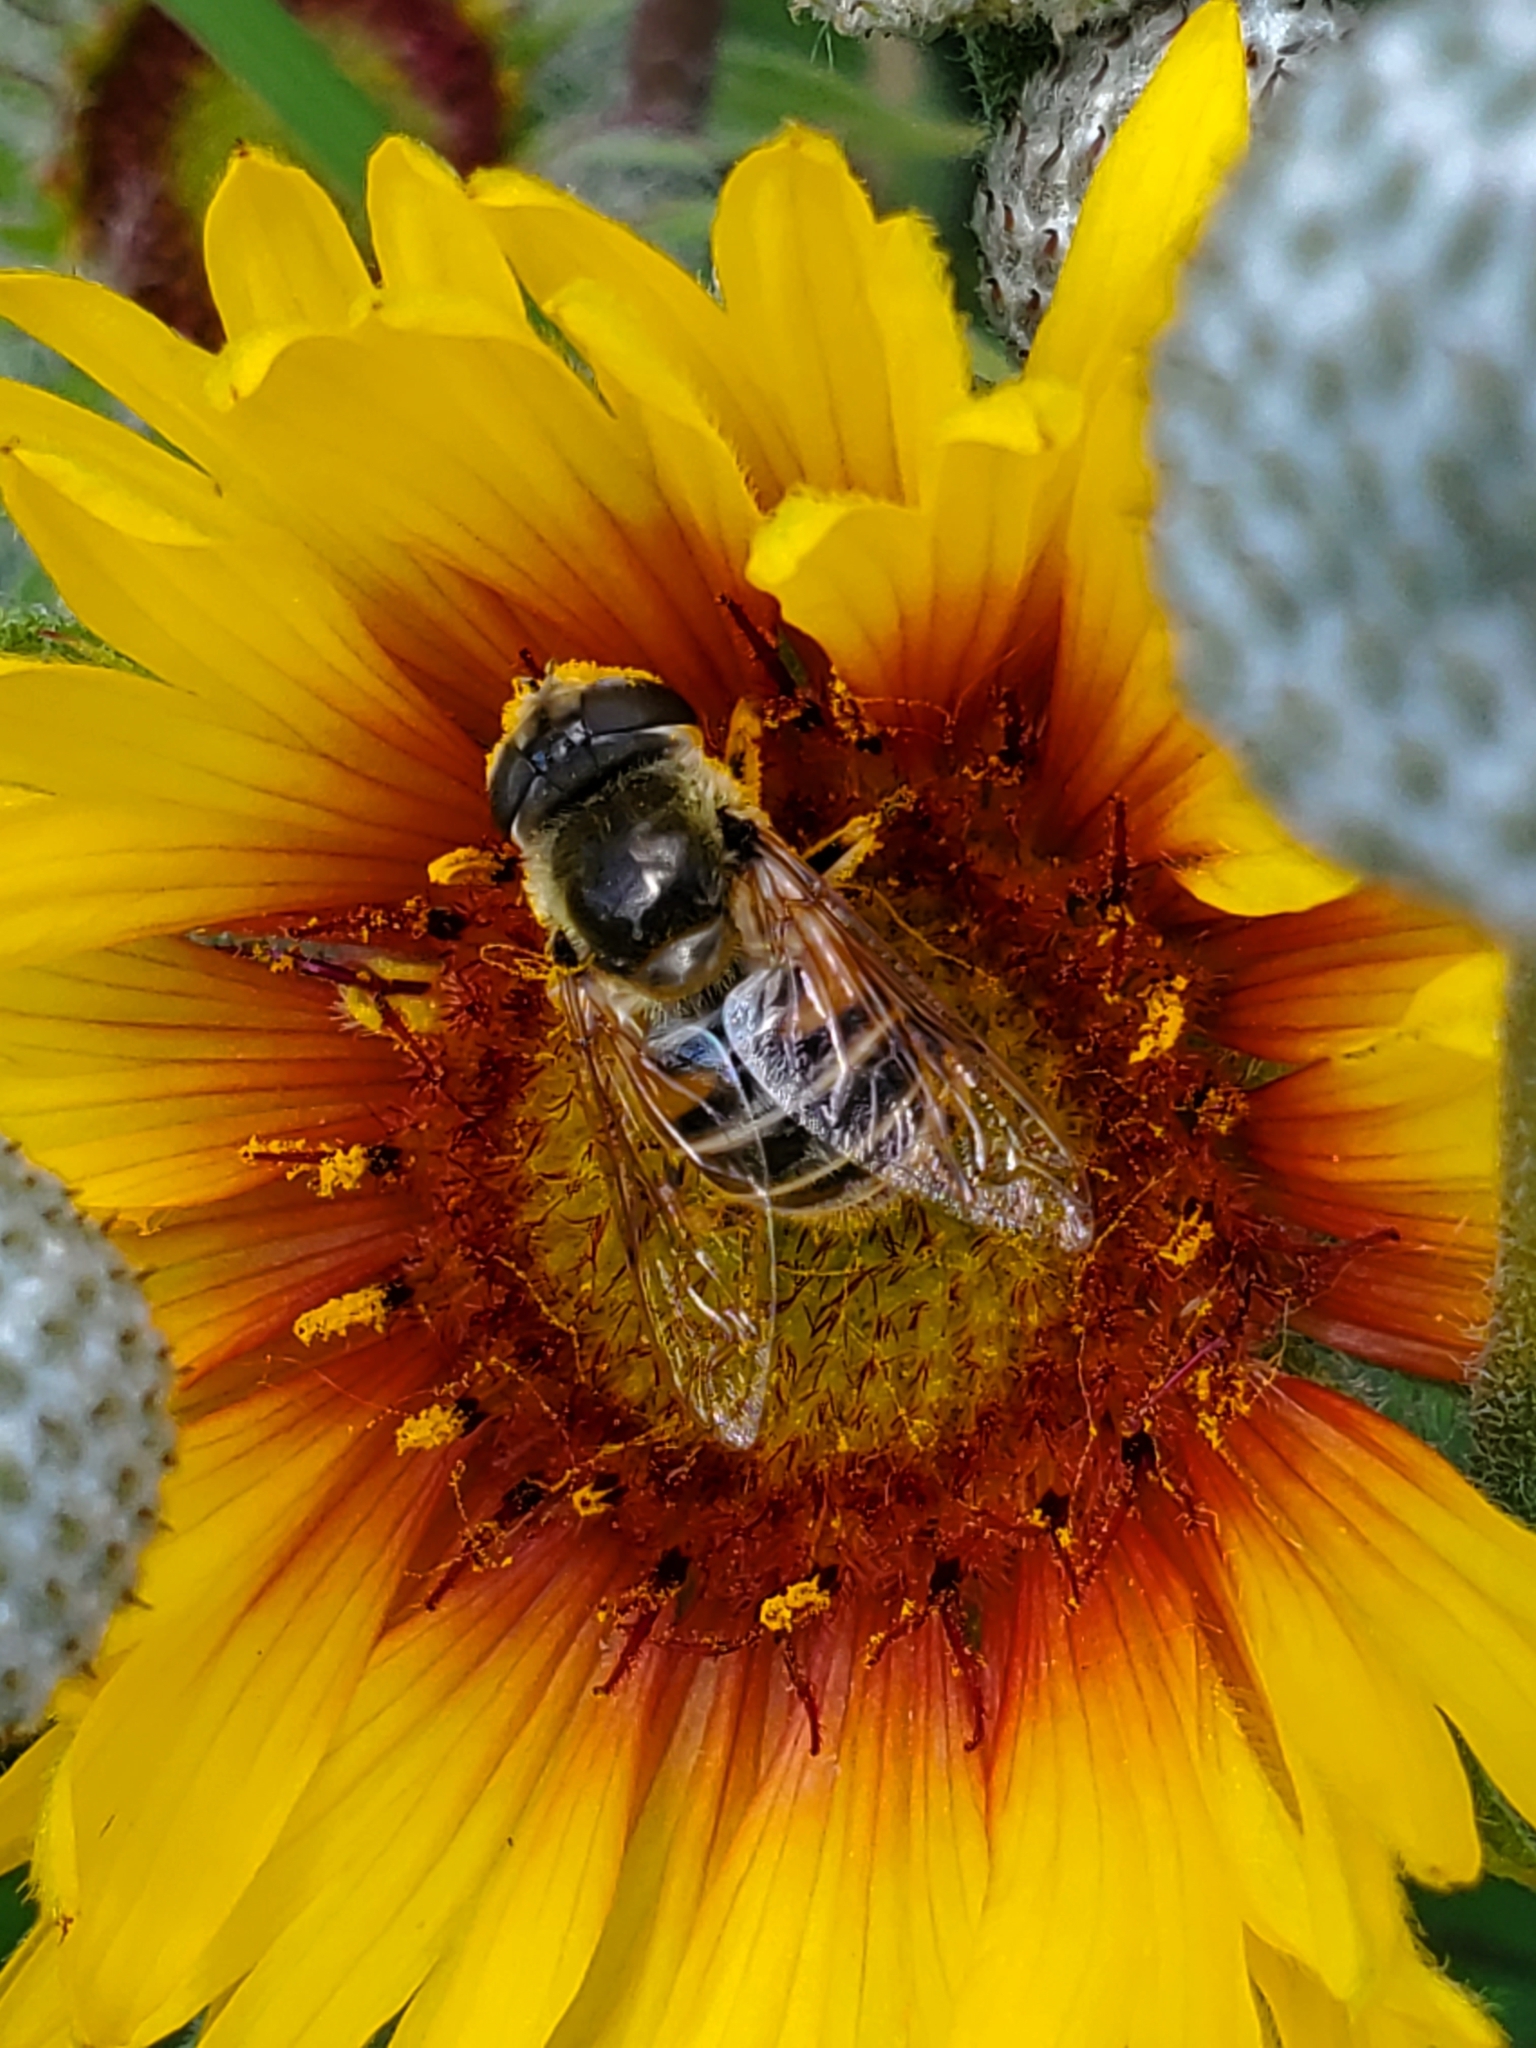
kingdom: Animalia
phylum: Arthropoda
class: Insecta
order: Diptera
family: Syrphidae
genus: Eristalis
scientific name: Eristalis stipator
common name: Yellow-shouldered drone fly
